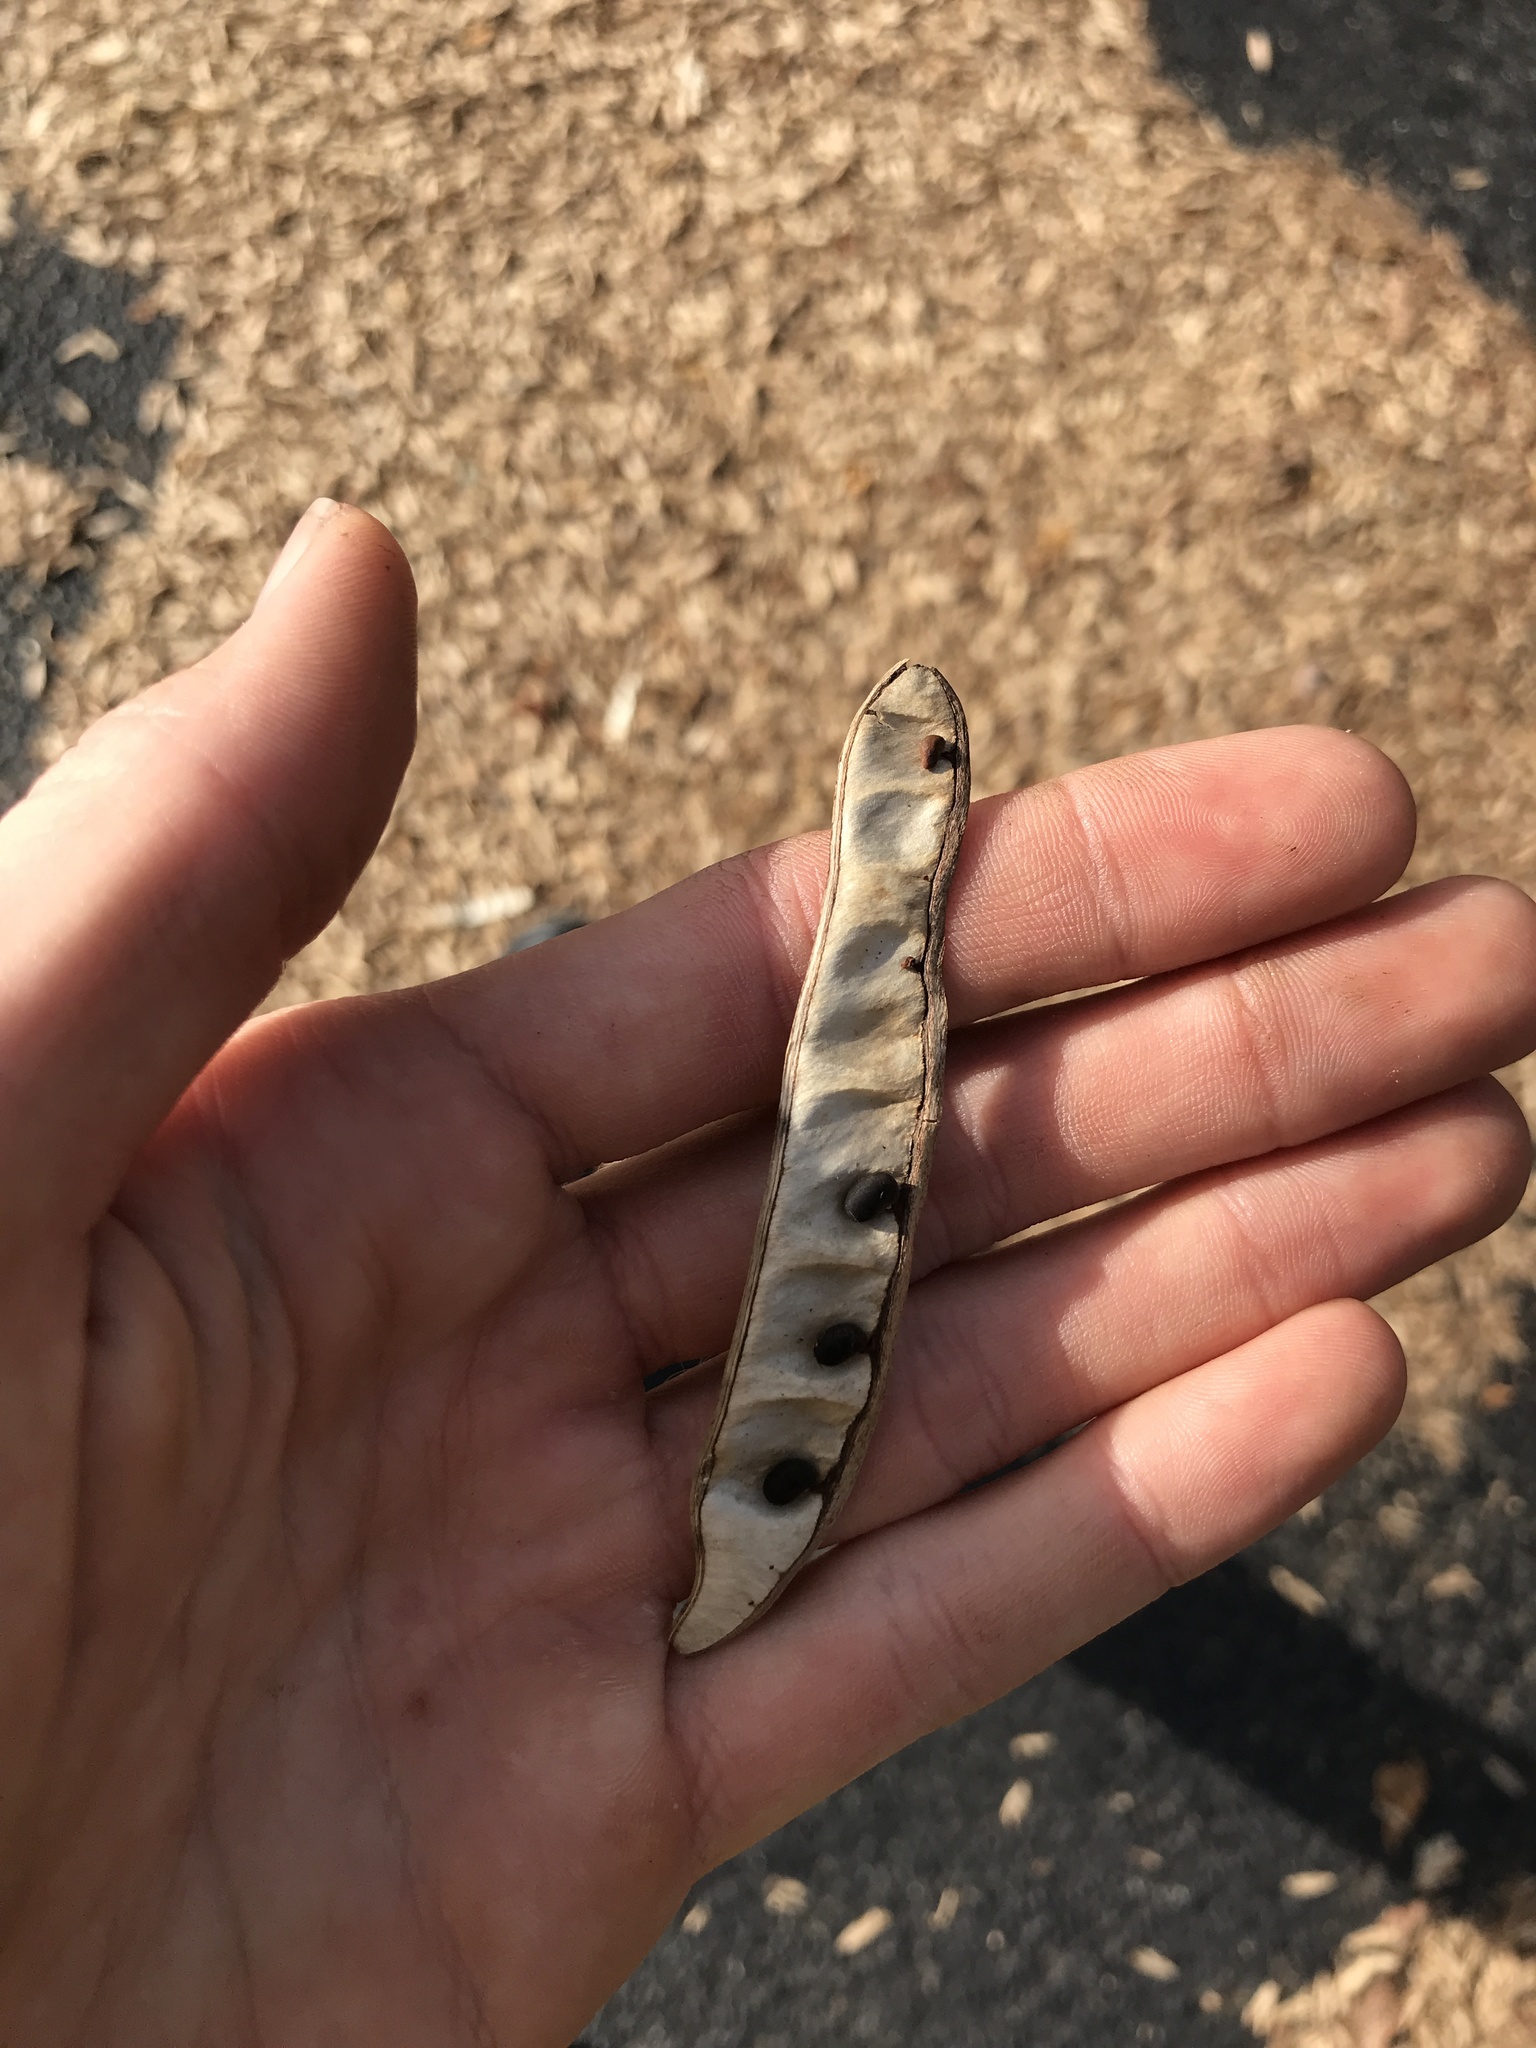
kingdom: Plantae
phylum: Tracheophyta
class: Magnoliopsida
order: Fabales
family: Fabaceae
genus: Robinia
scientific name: Robinia pseudoacacia
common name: Black locust
